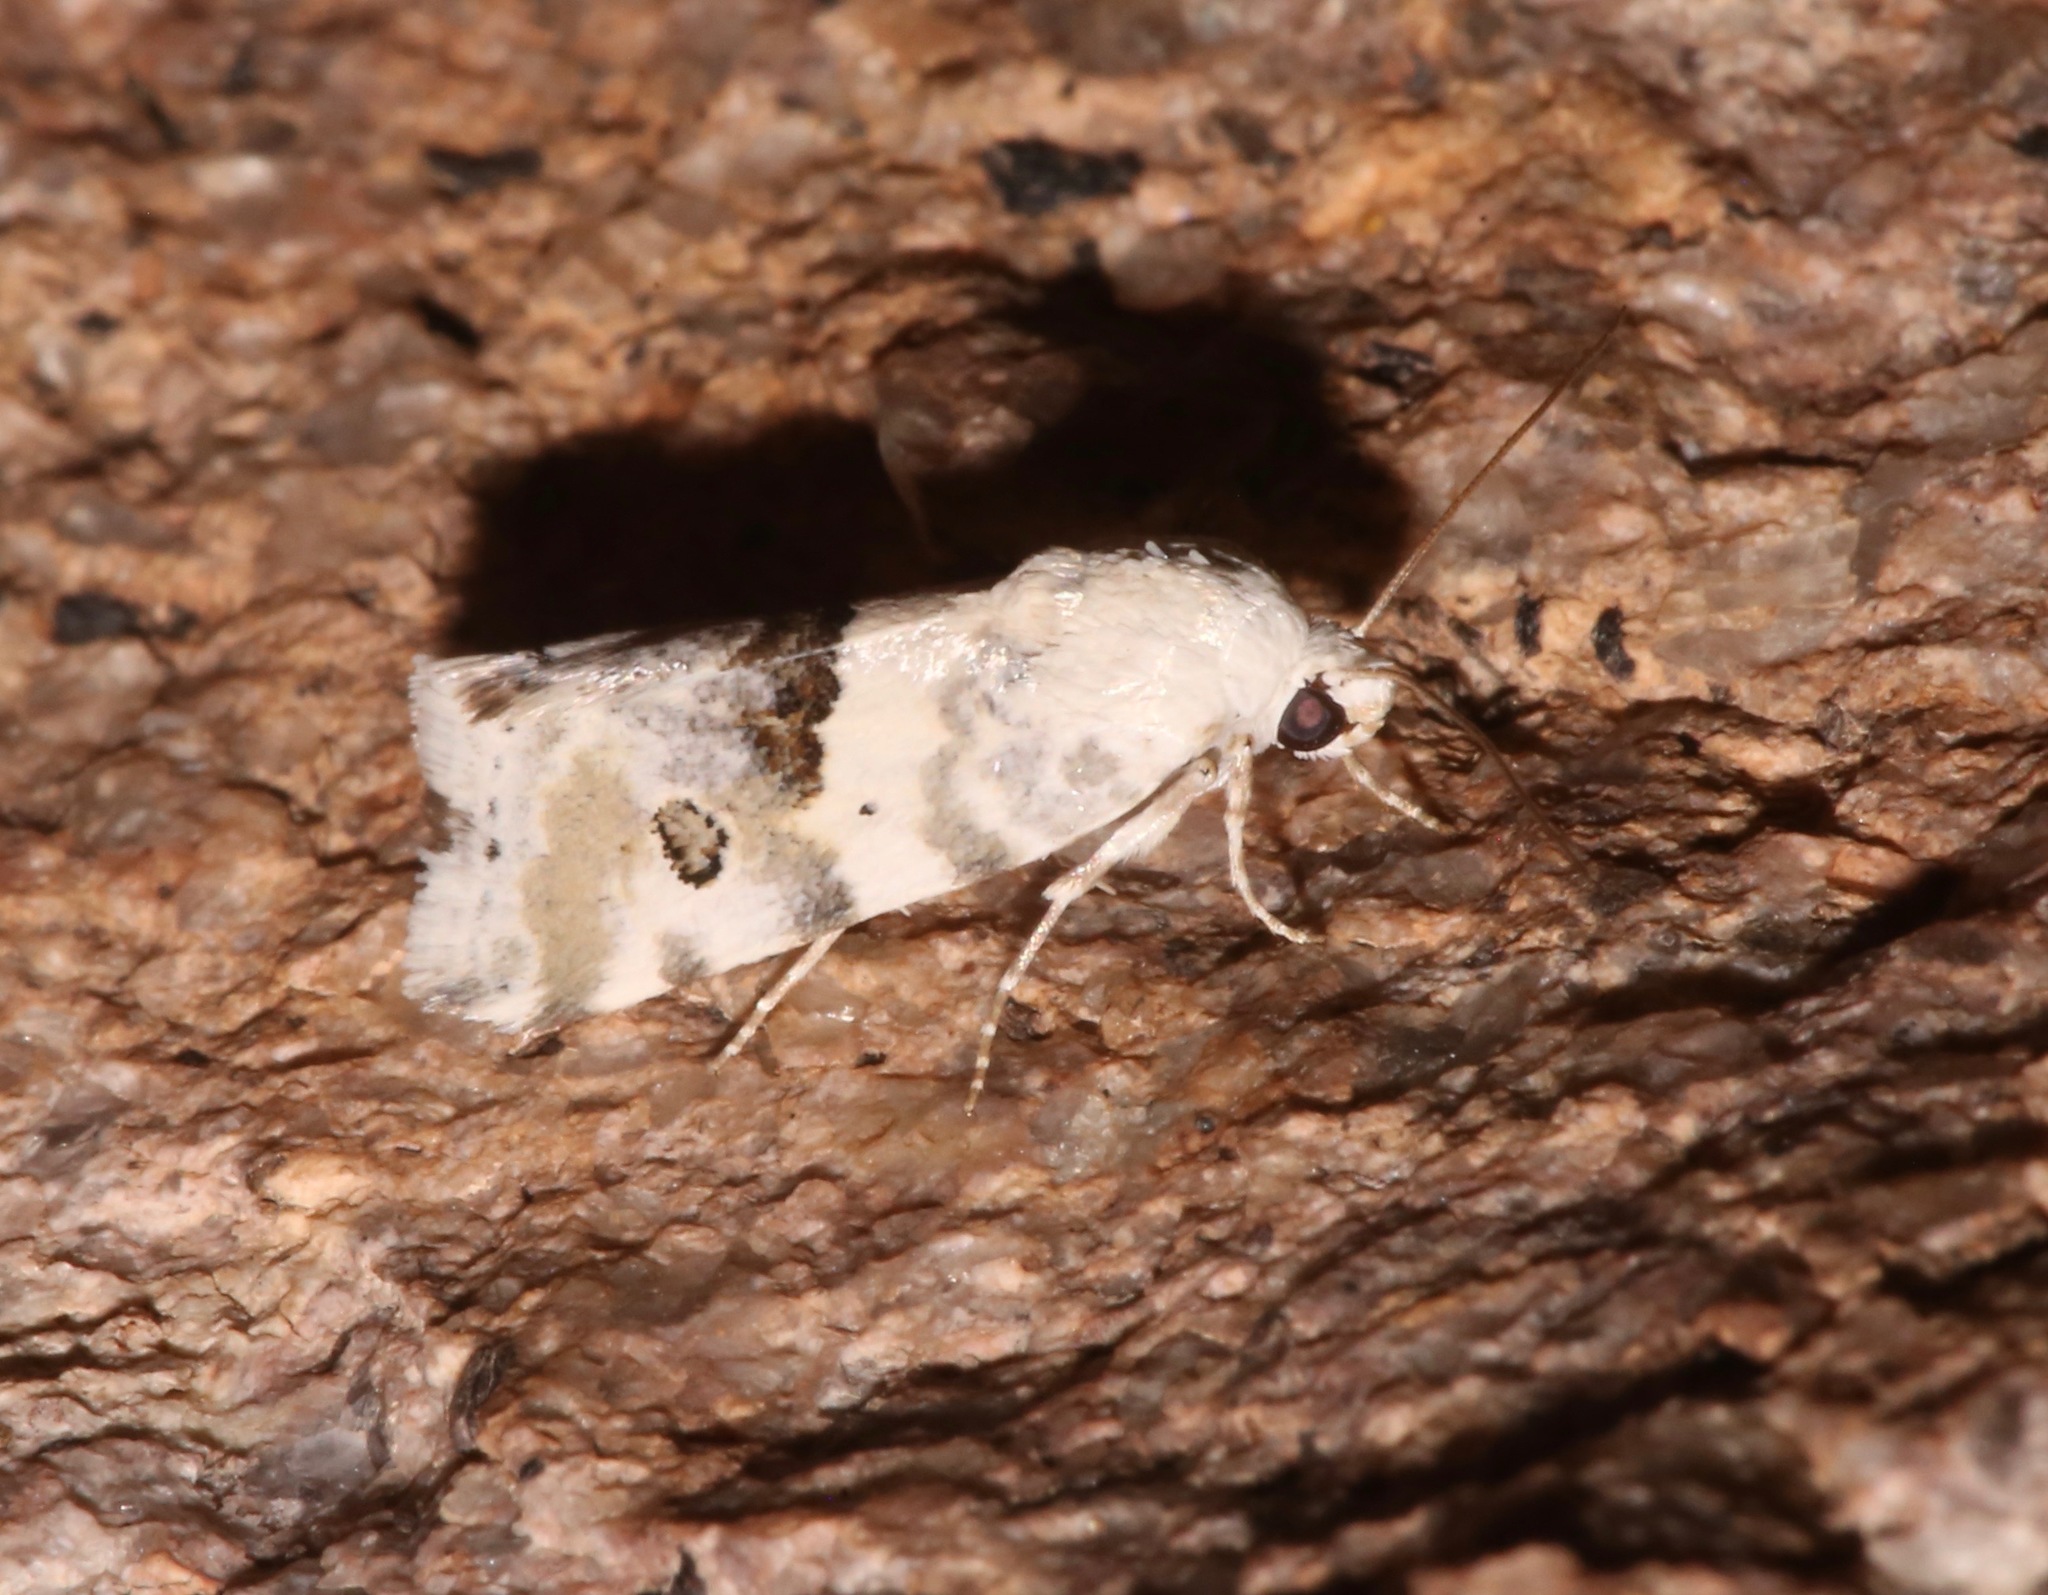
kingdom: Animalia
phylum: Arthropoda
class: Insecta
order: Lepidoptera
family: Noctuidae
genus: Acontia
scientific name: Acontia altera
